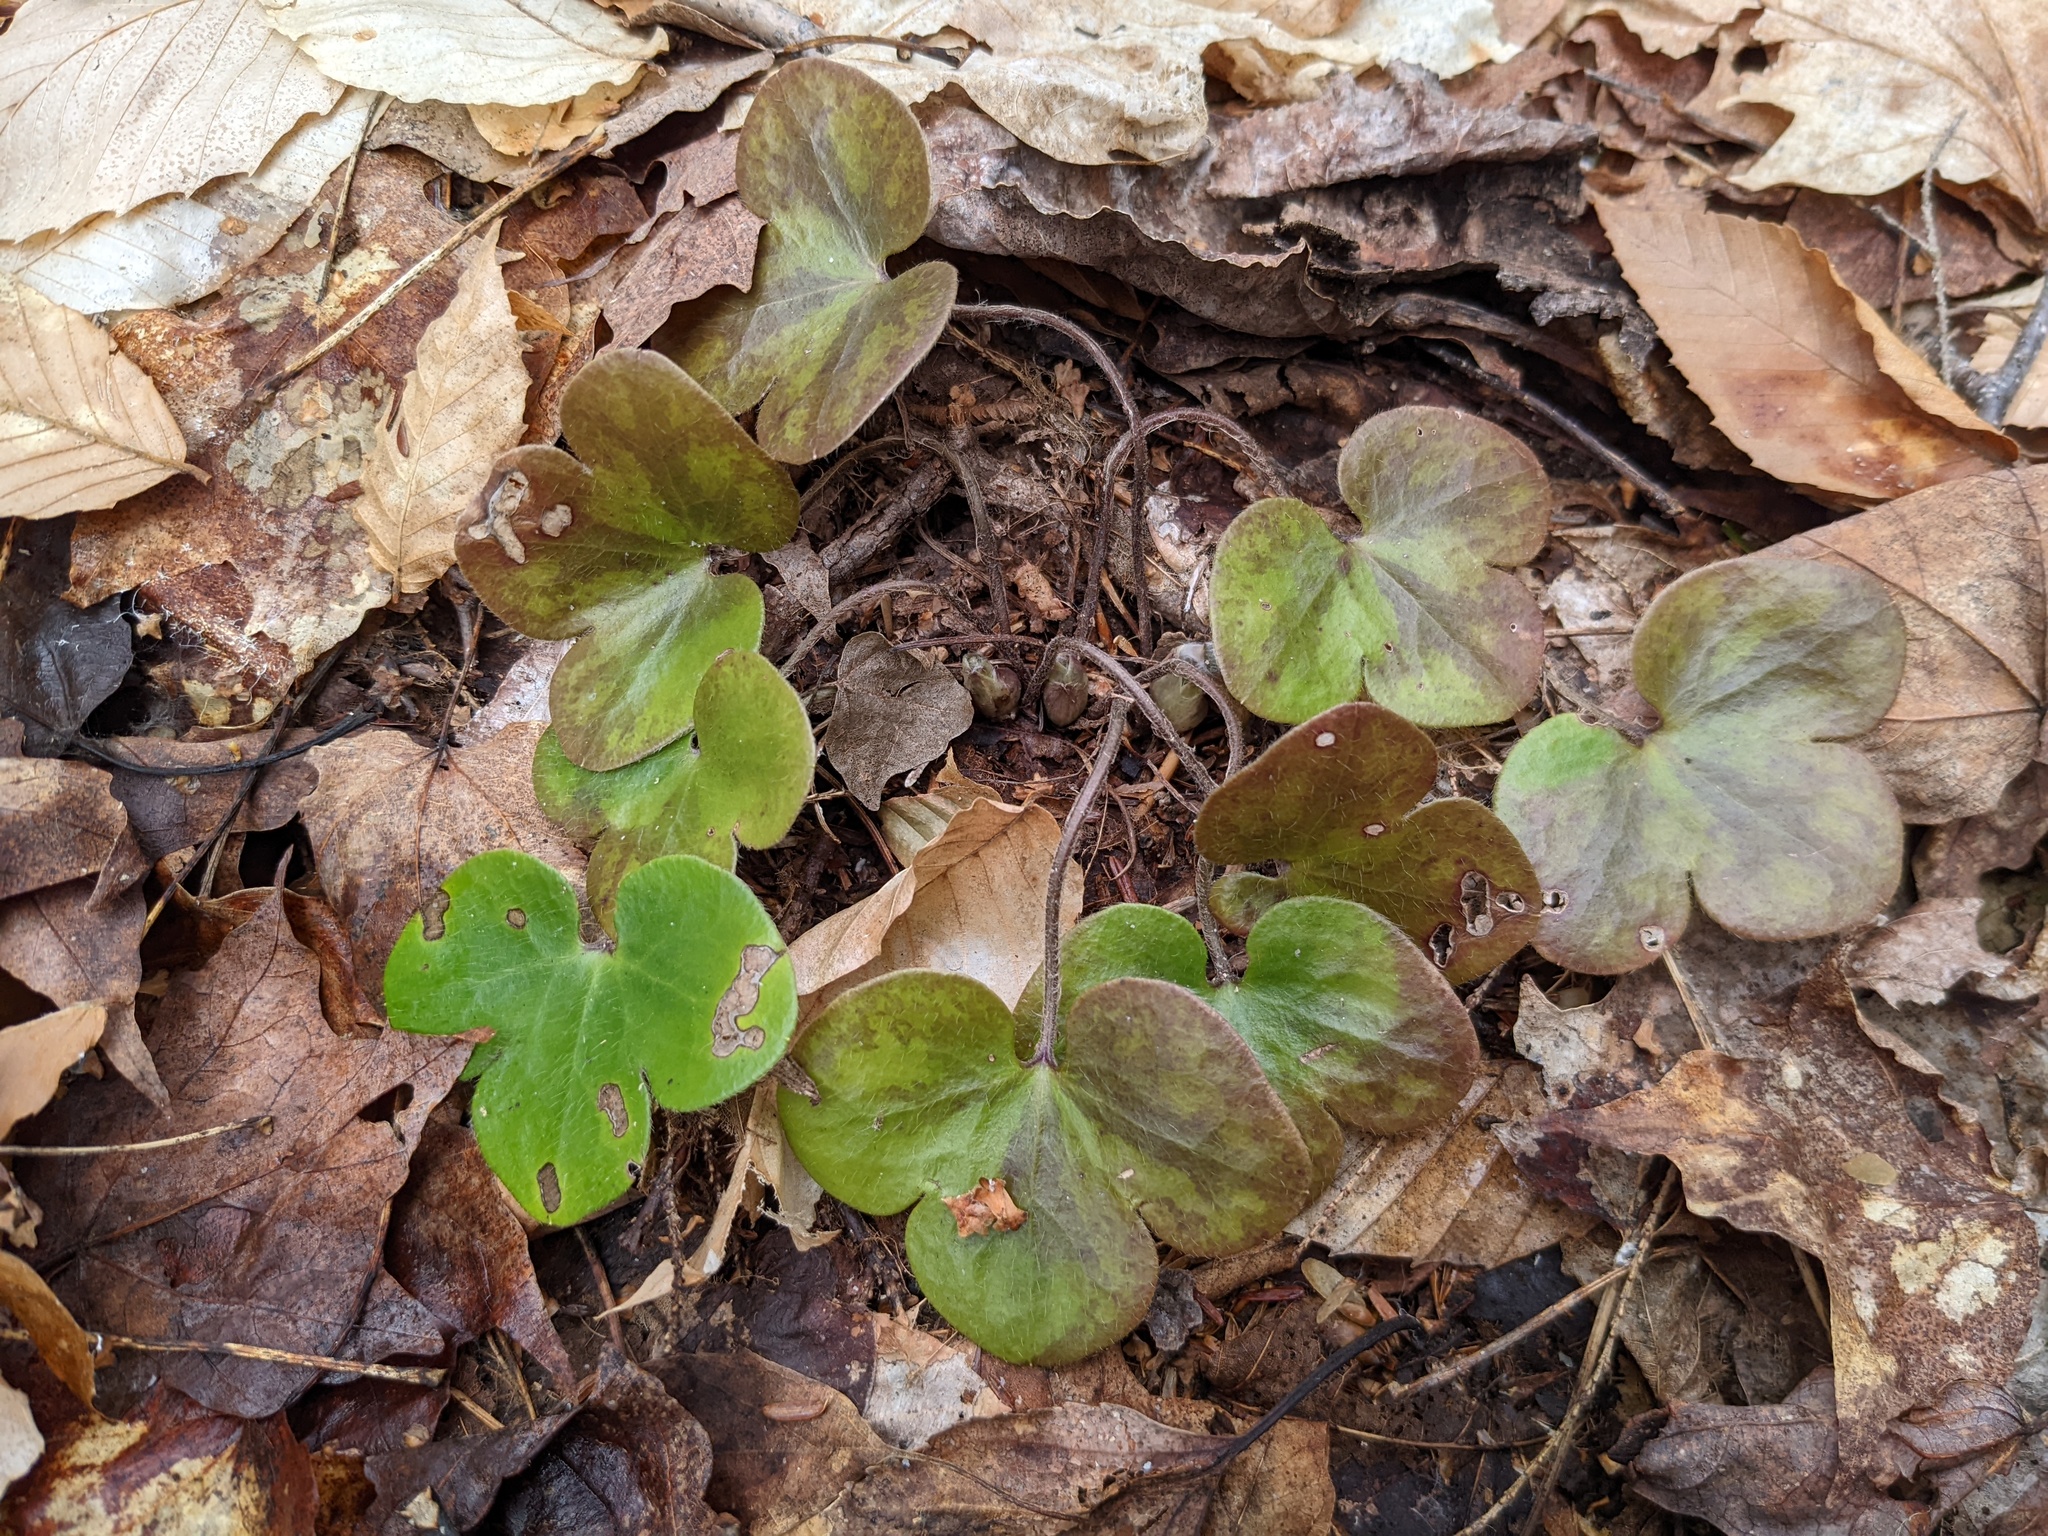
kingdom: Plantae
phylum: Tracheophyta
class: Magnoliopsida
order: Ranunculales
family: Ranunculaceae
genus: Hepatica
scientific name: Hepatica americana
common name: American hepatica
